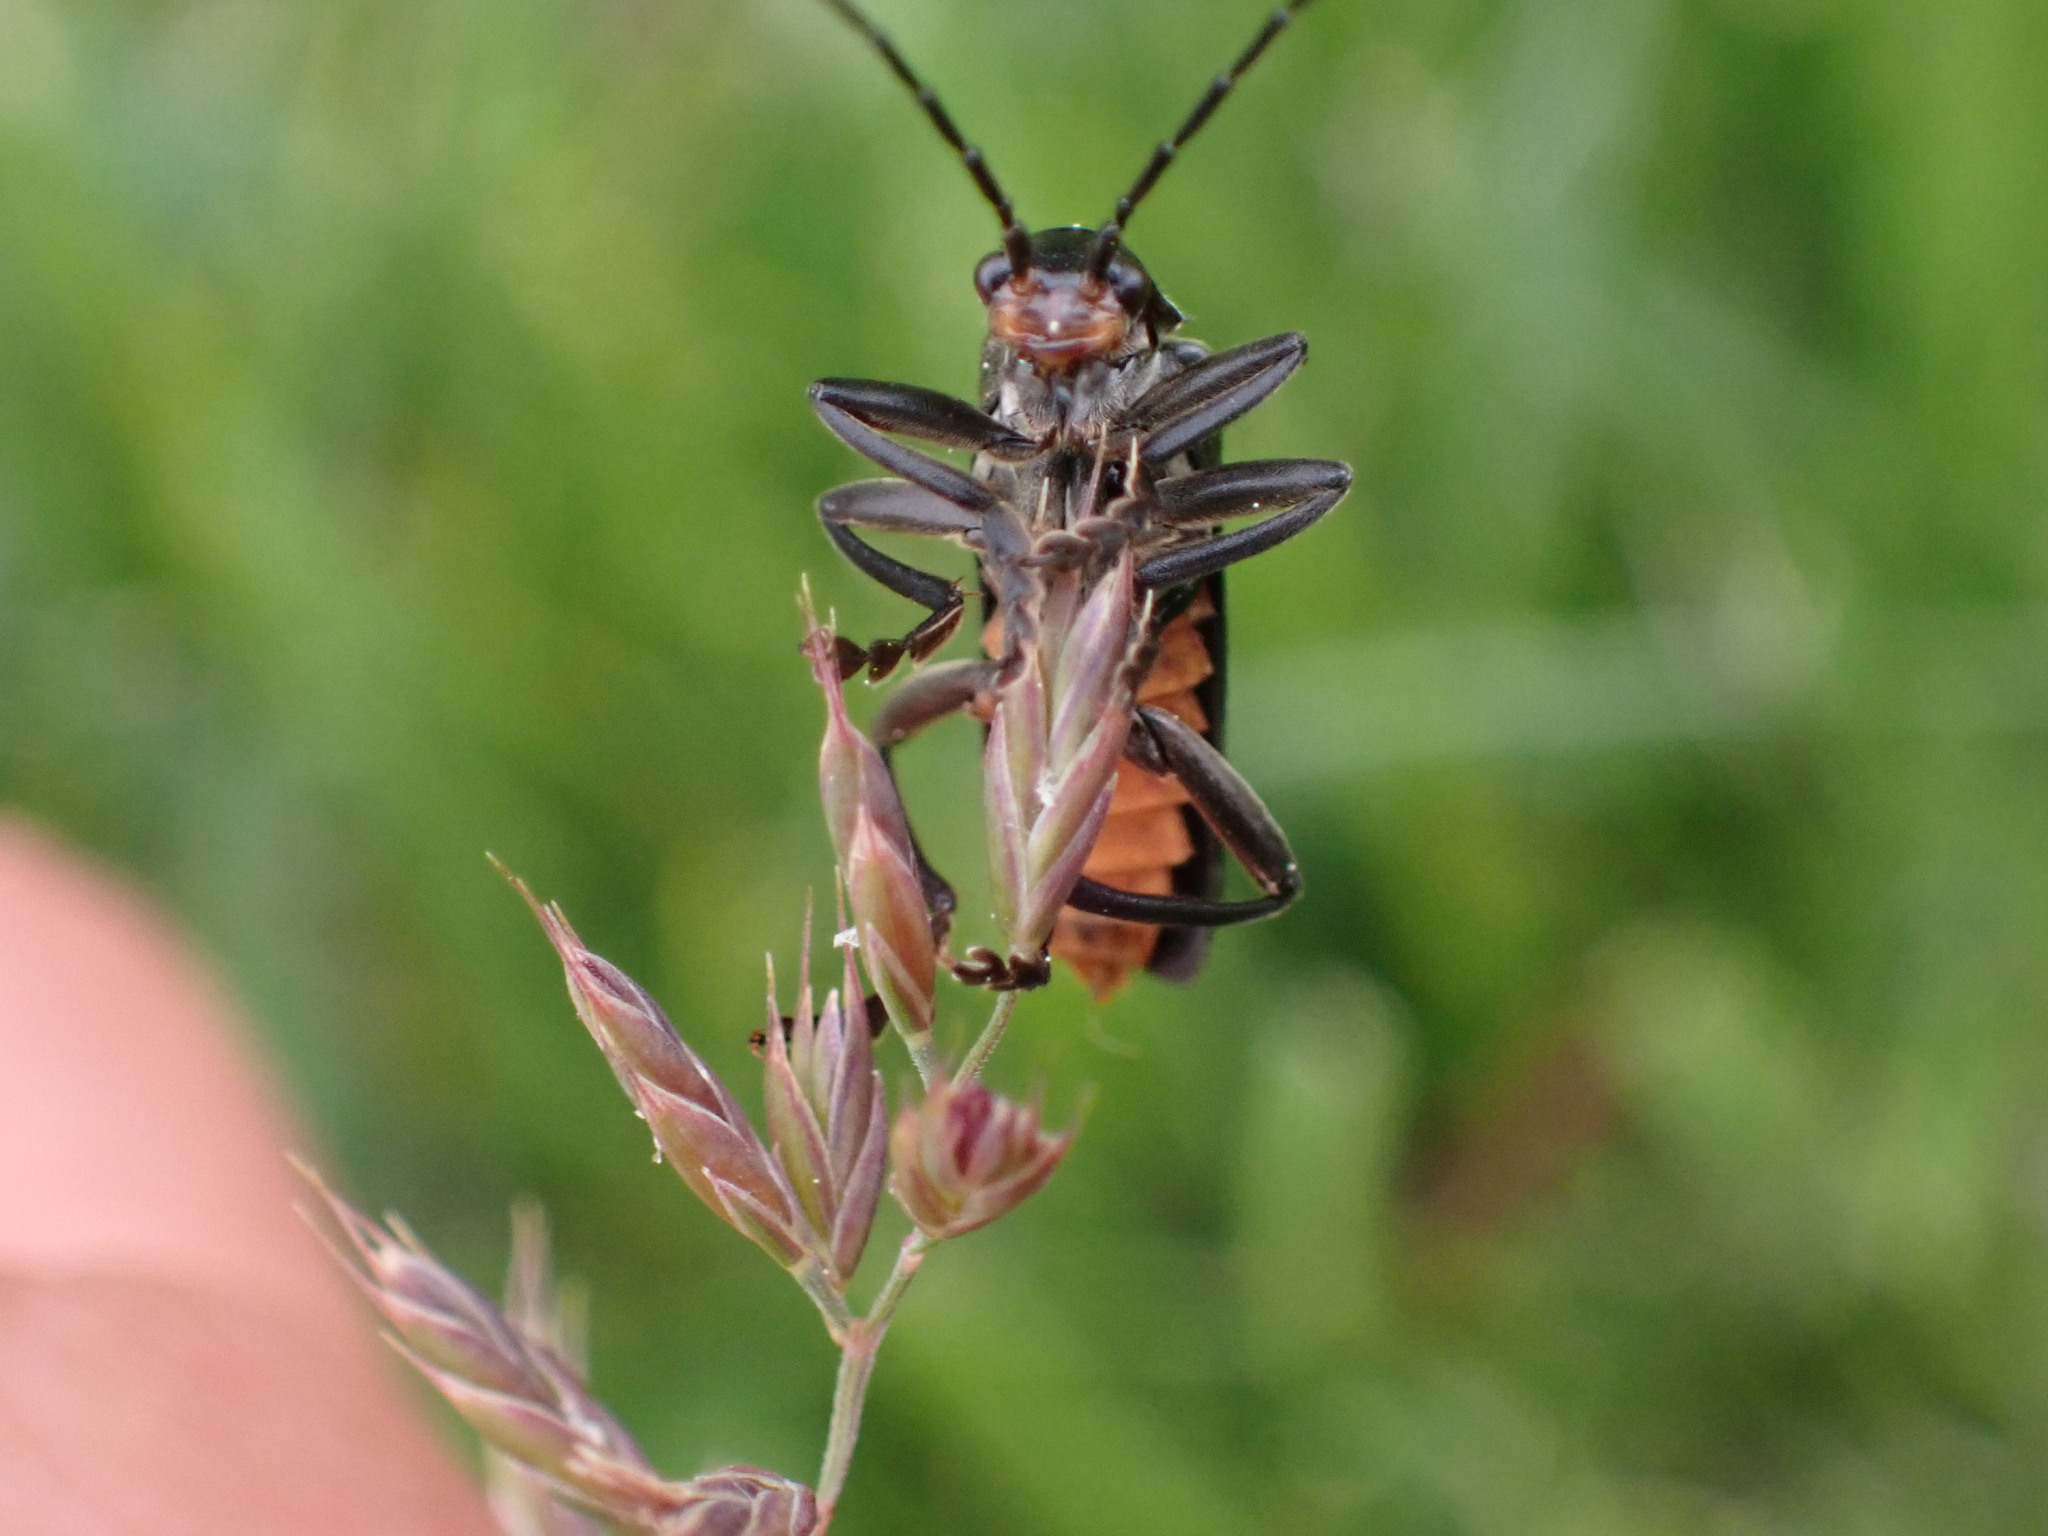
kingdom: Animalia
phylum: Arthropoda
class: Insecta
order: Coleoptera
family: Cantharidae
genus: Ancistronycha
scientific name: Ancistronycha abdominalis
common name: Blue soldier beetle
